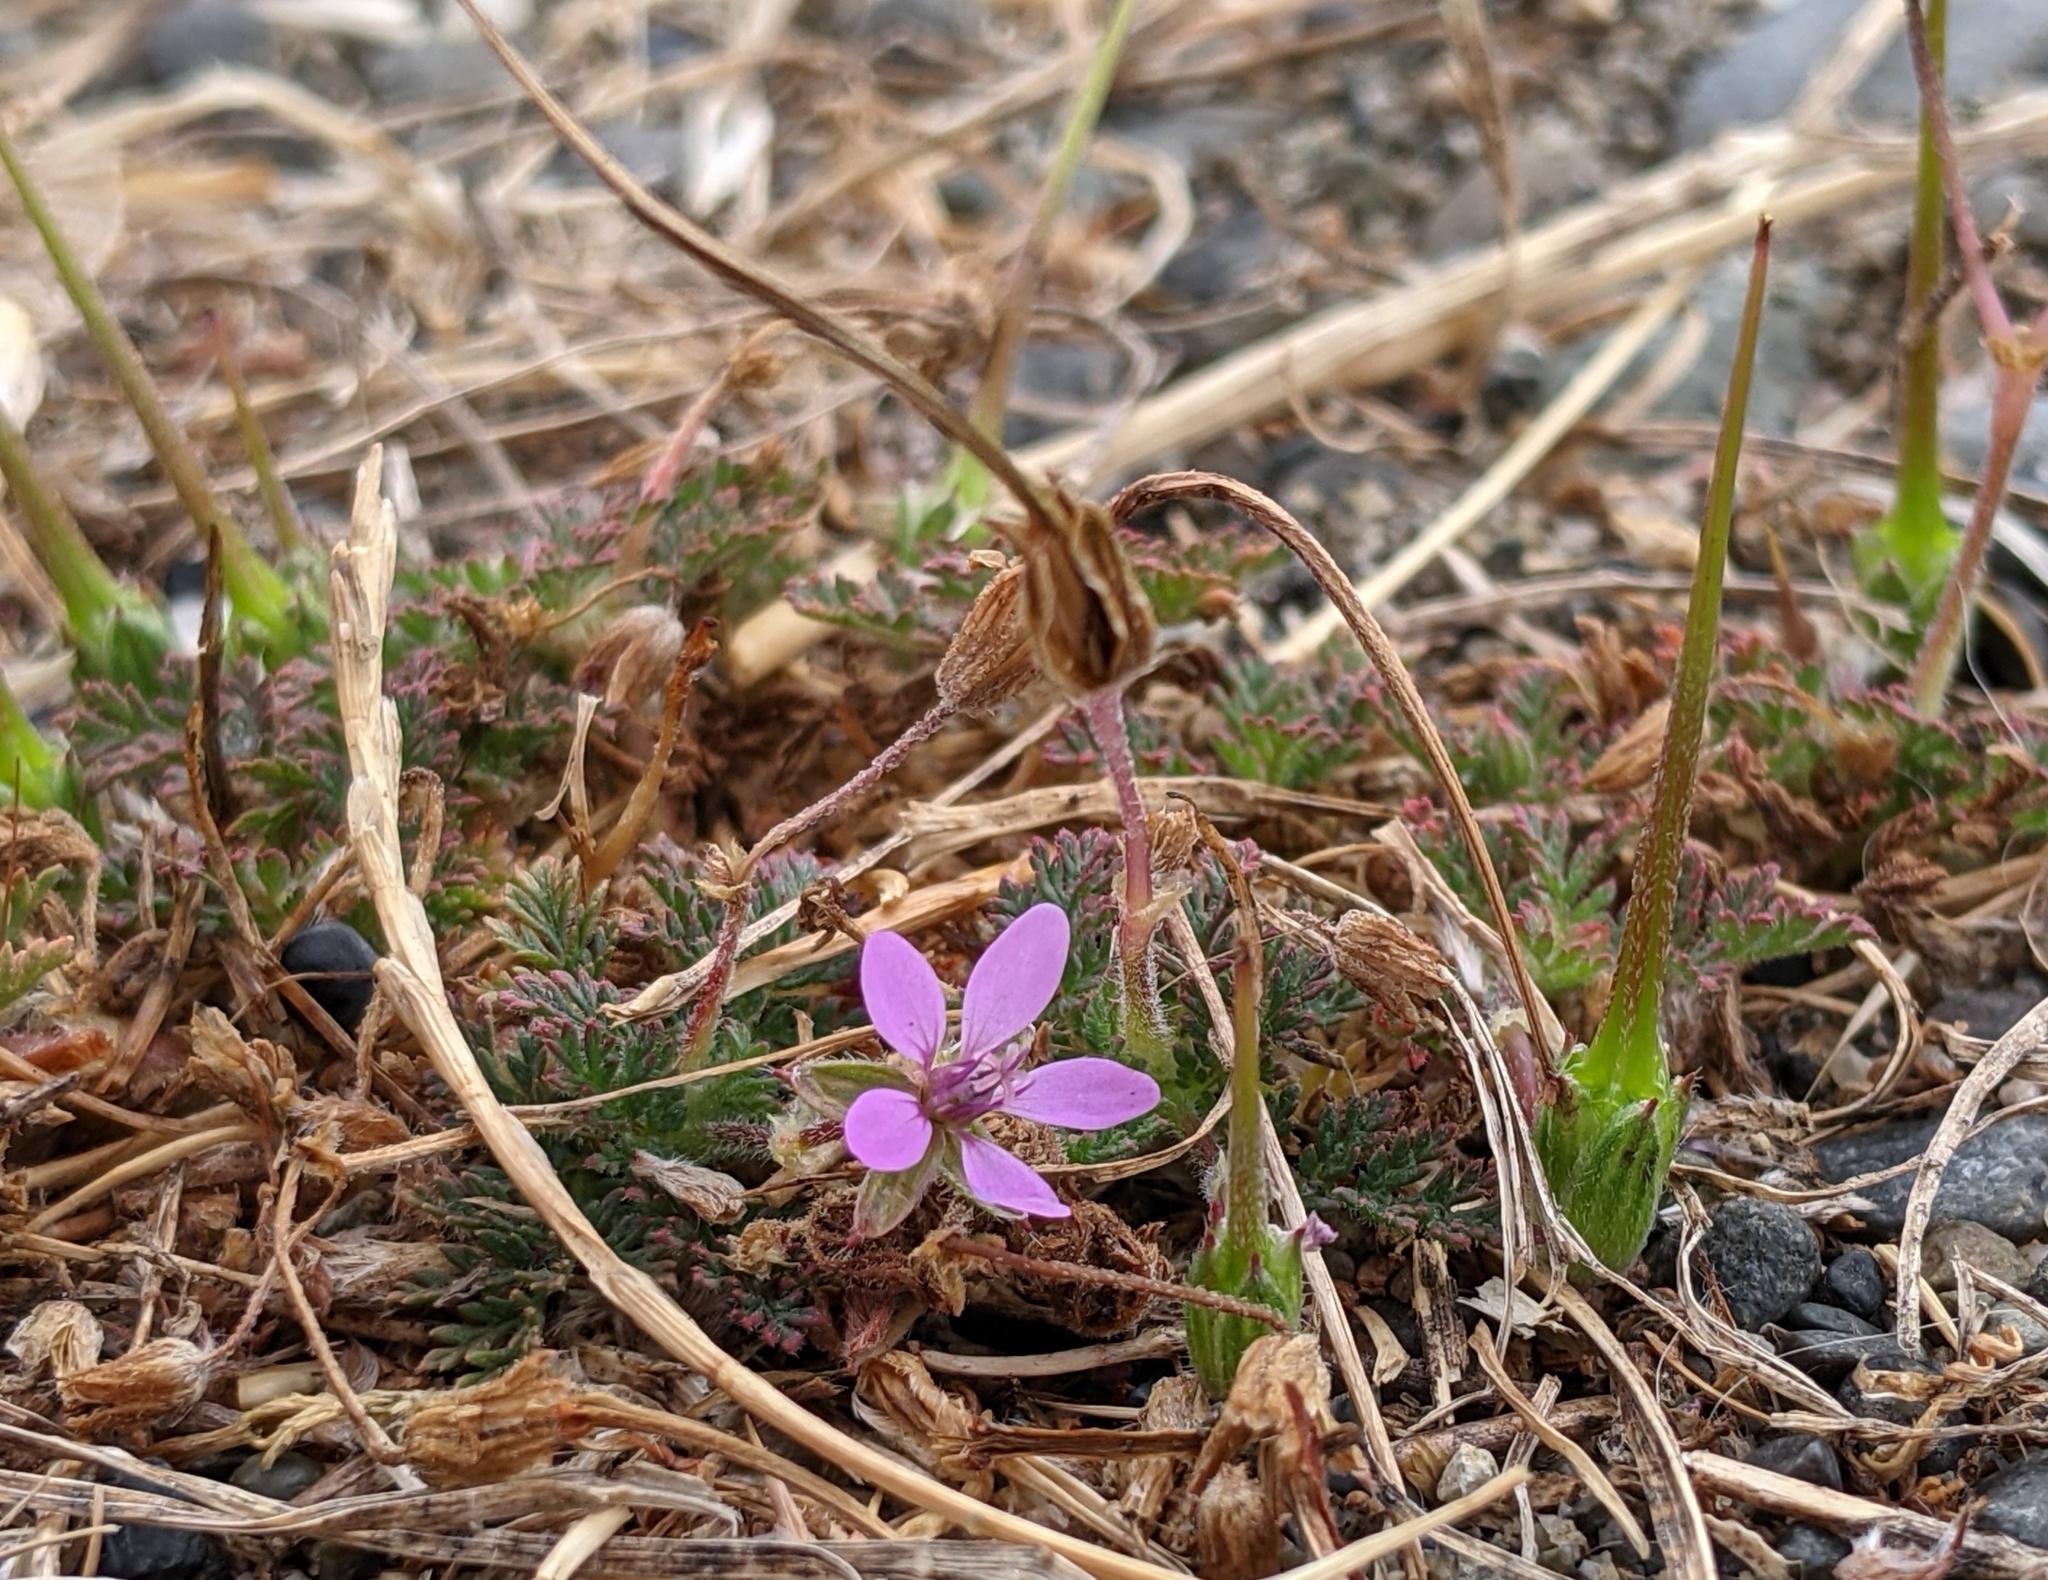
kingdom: Plantae
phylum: Tracheophyta
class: Magnoliopsida
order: Geraniales
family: Geraniaceae
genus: Erodium
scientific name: Erodium cicutarium
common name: Common stork's-bill
